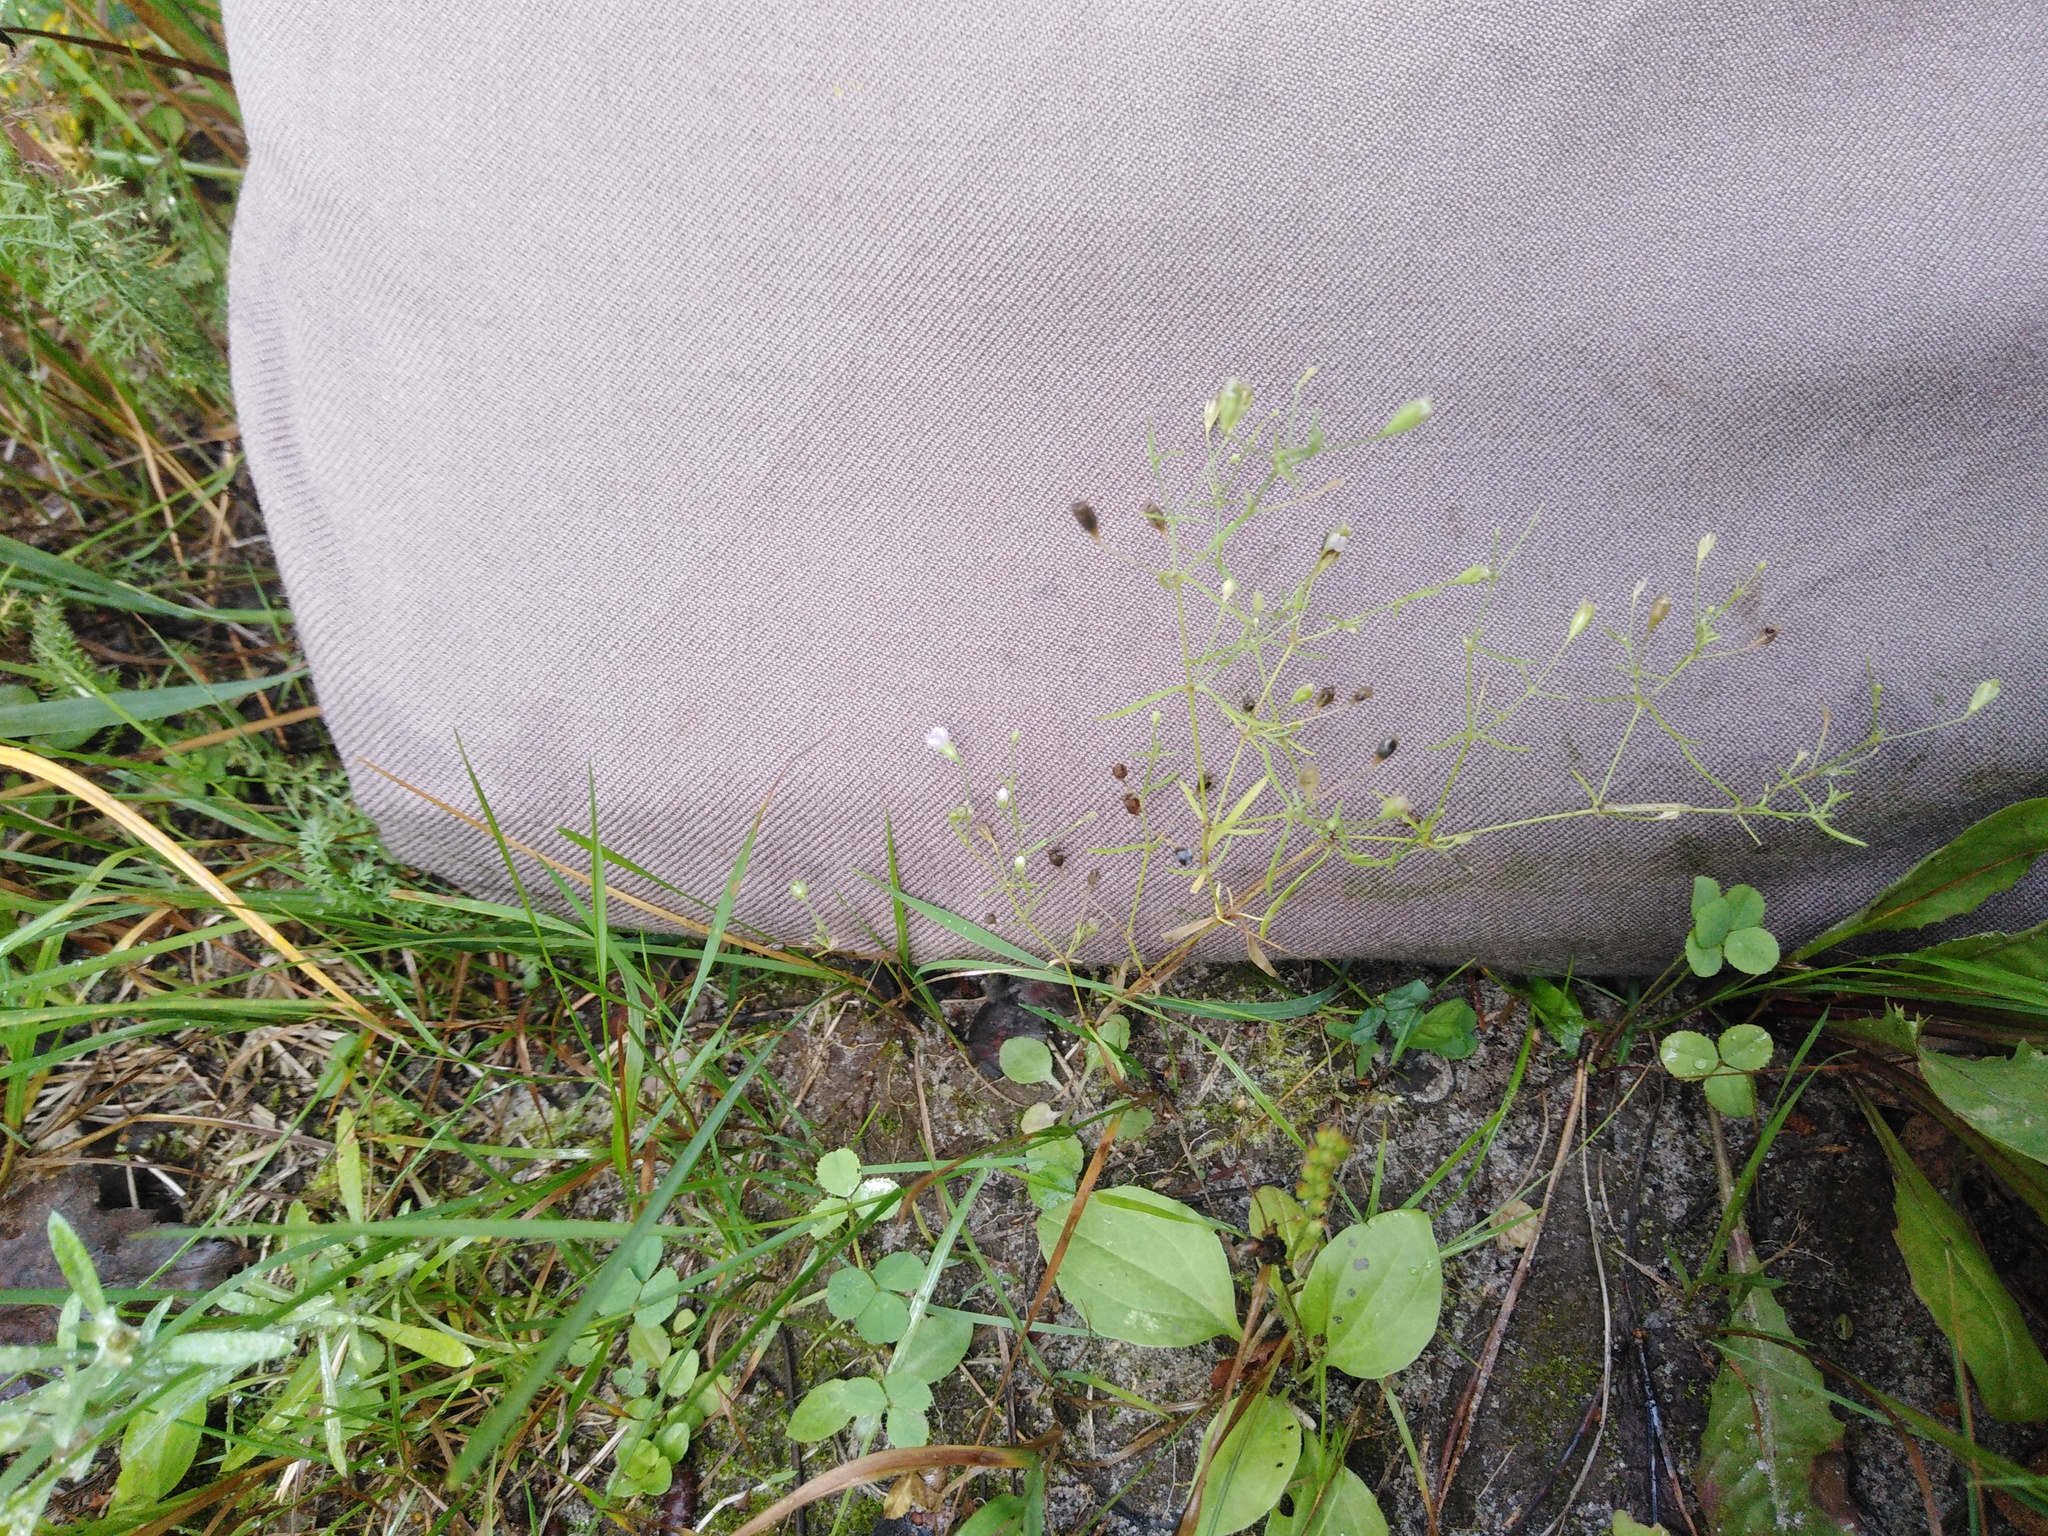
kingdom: Plantae
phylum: Tracheophyta
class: Magnoliopsida
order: Caryophyllales
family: Caryophyllaceae
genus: Psammophiliella
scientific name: Psammophiliella muralis
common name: Cushion baby's-breath
